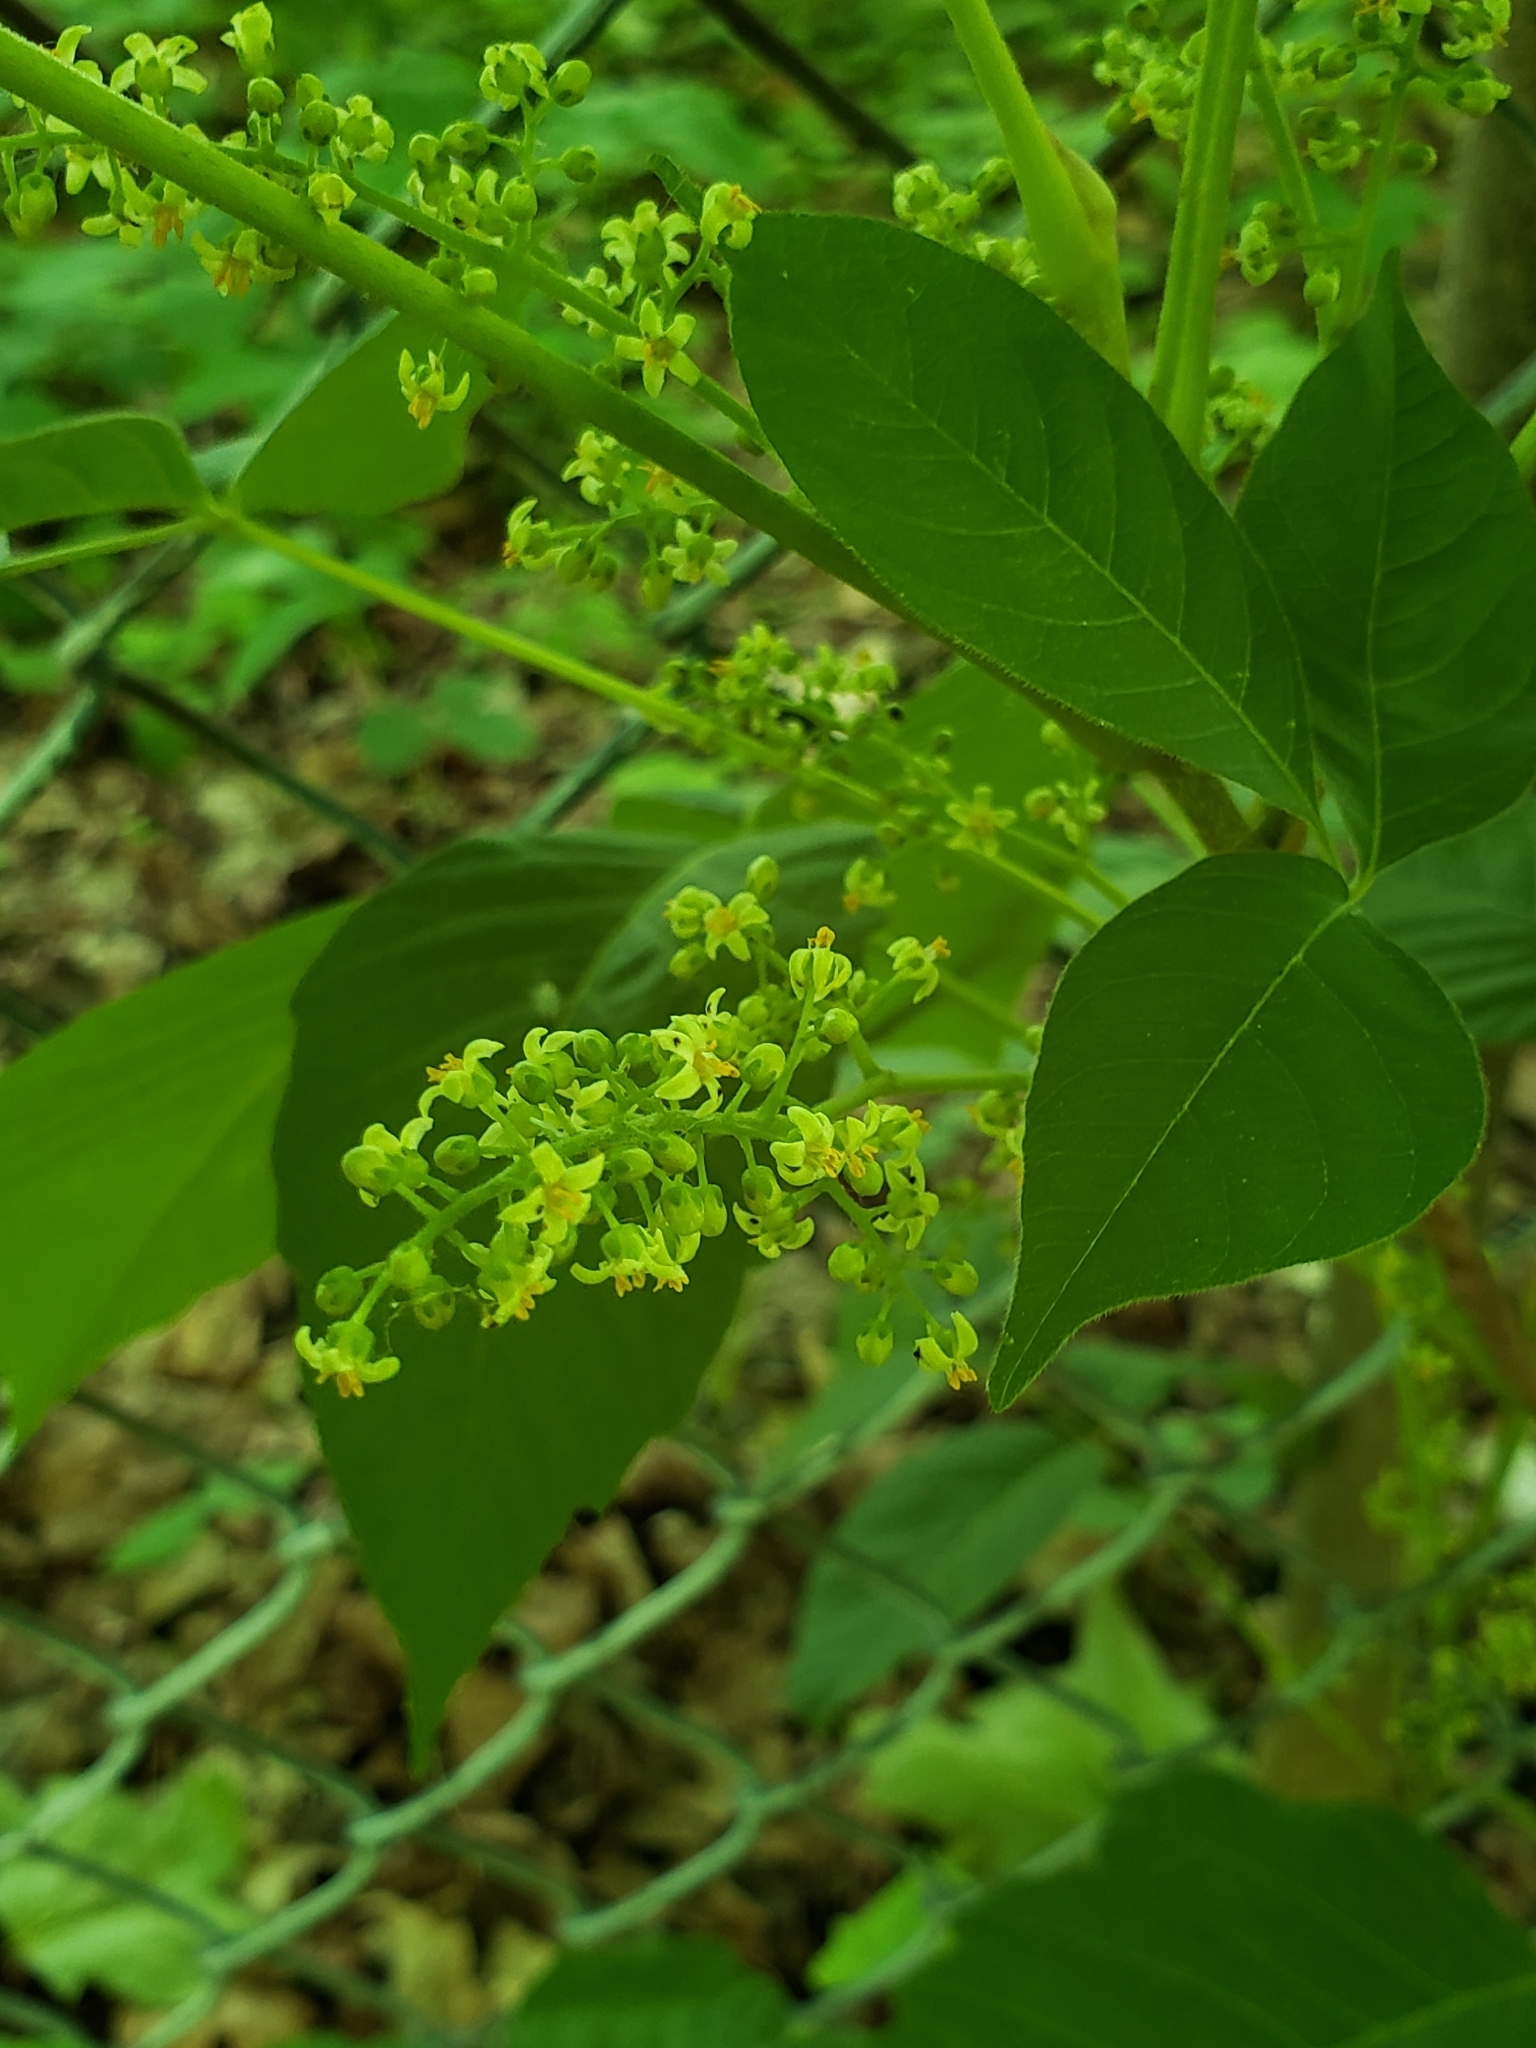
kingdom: Plantae
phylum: Tracheophyta
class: Magnoliopsida
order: Sapindales
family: Anacardiaceae
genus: Toxicodendron
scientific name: Toxicodendron radicans
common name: Poison ivy
